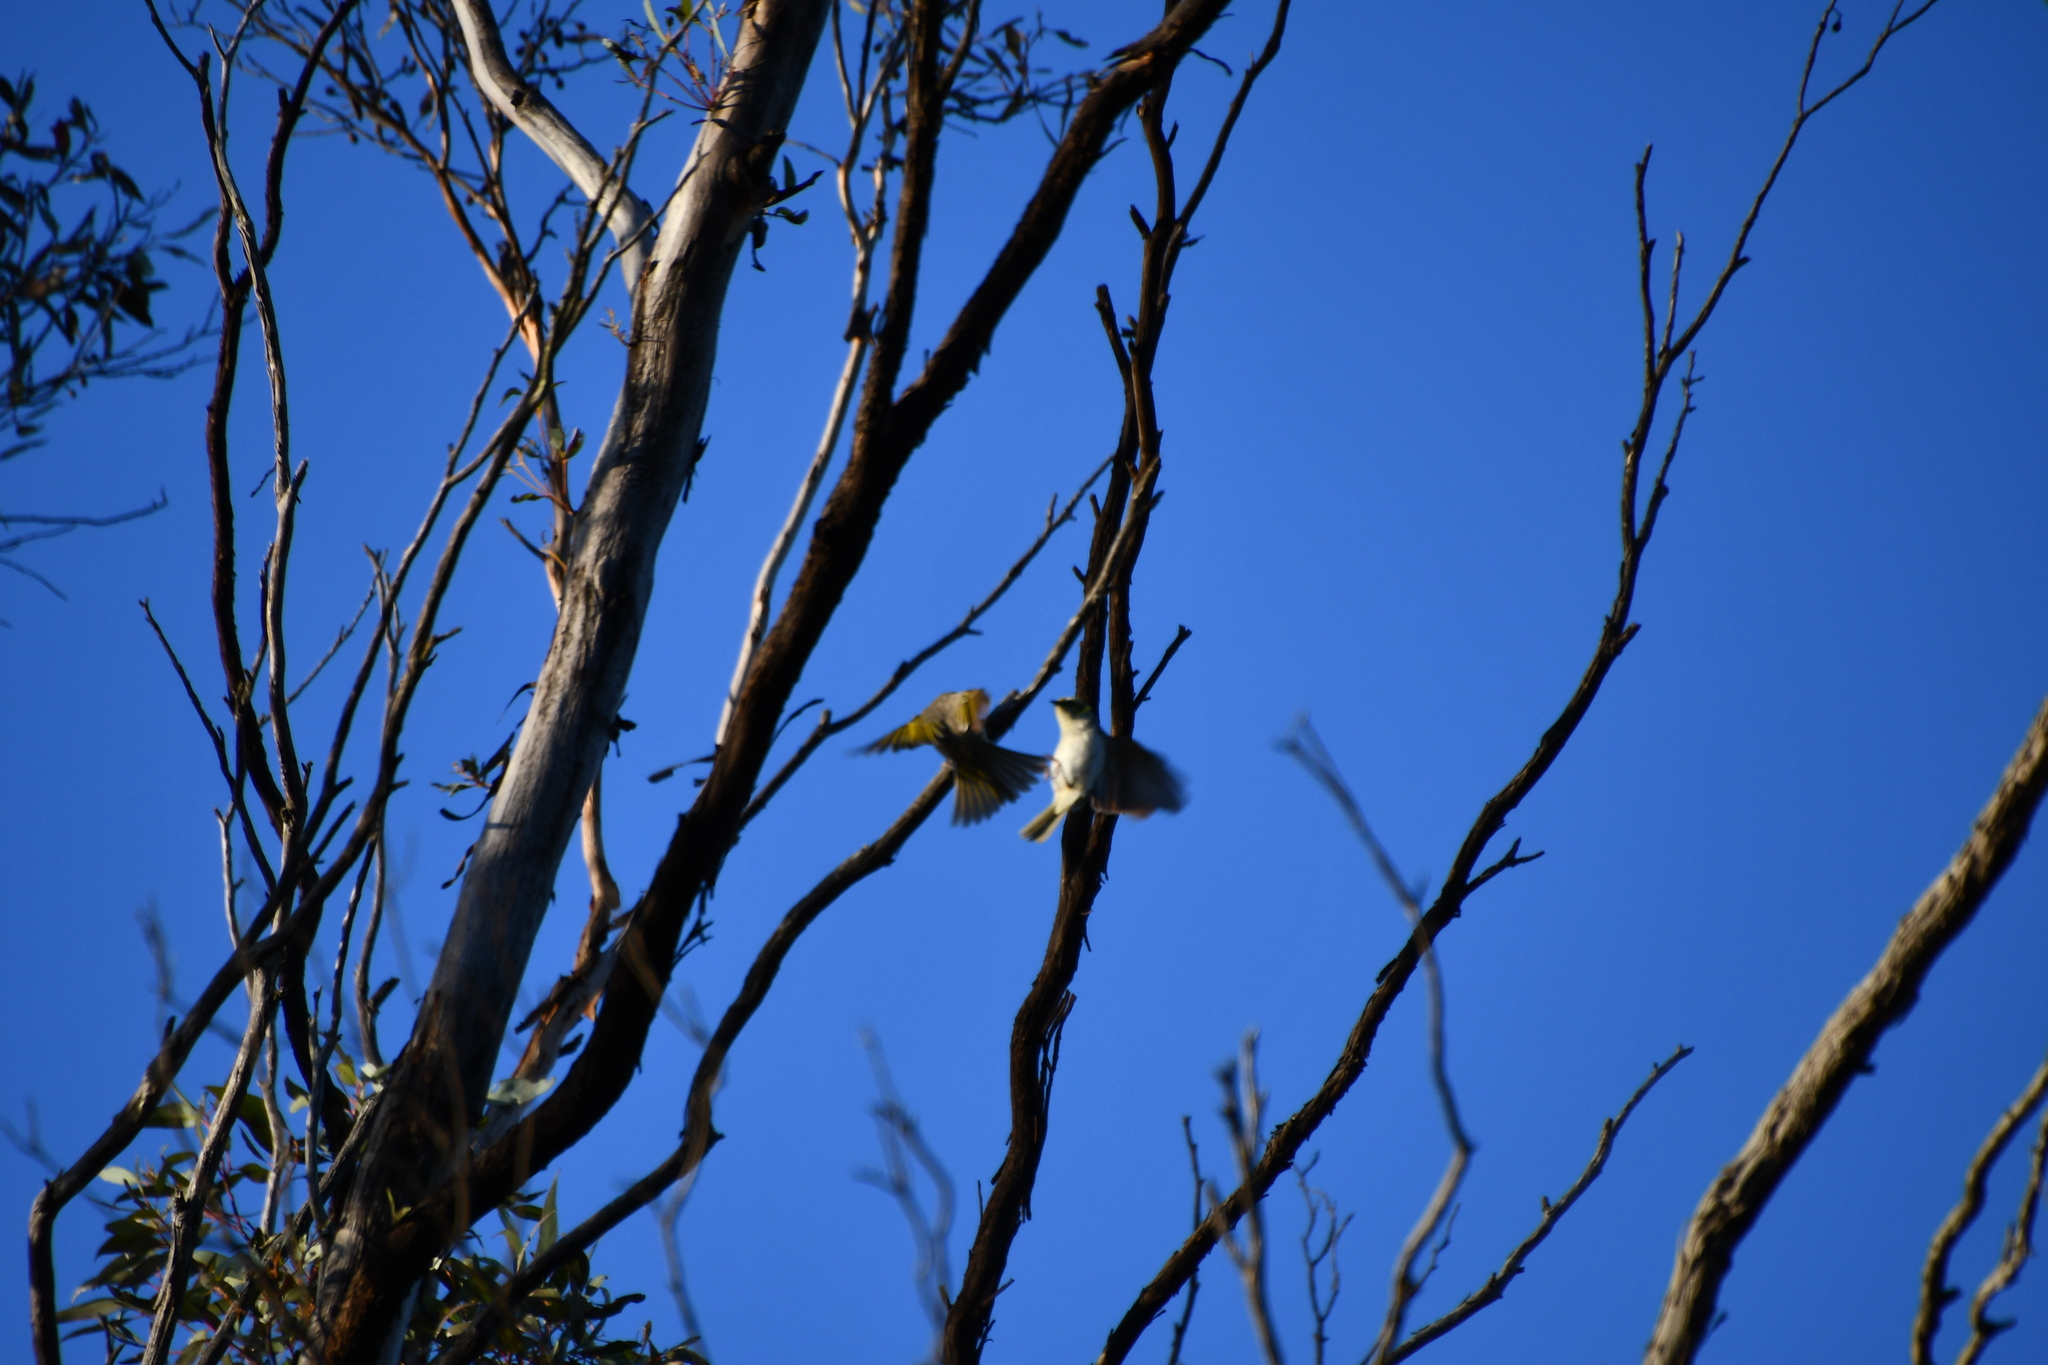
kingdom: Animalia
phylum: Chordata
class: Aves
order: Passeriformes
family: Meliphagidae
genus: Ptilotula
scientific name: Ptilotula ornata
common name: Yellow-plumed honeyeater
